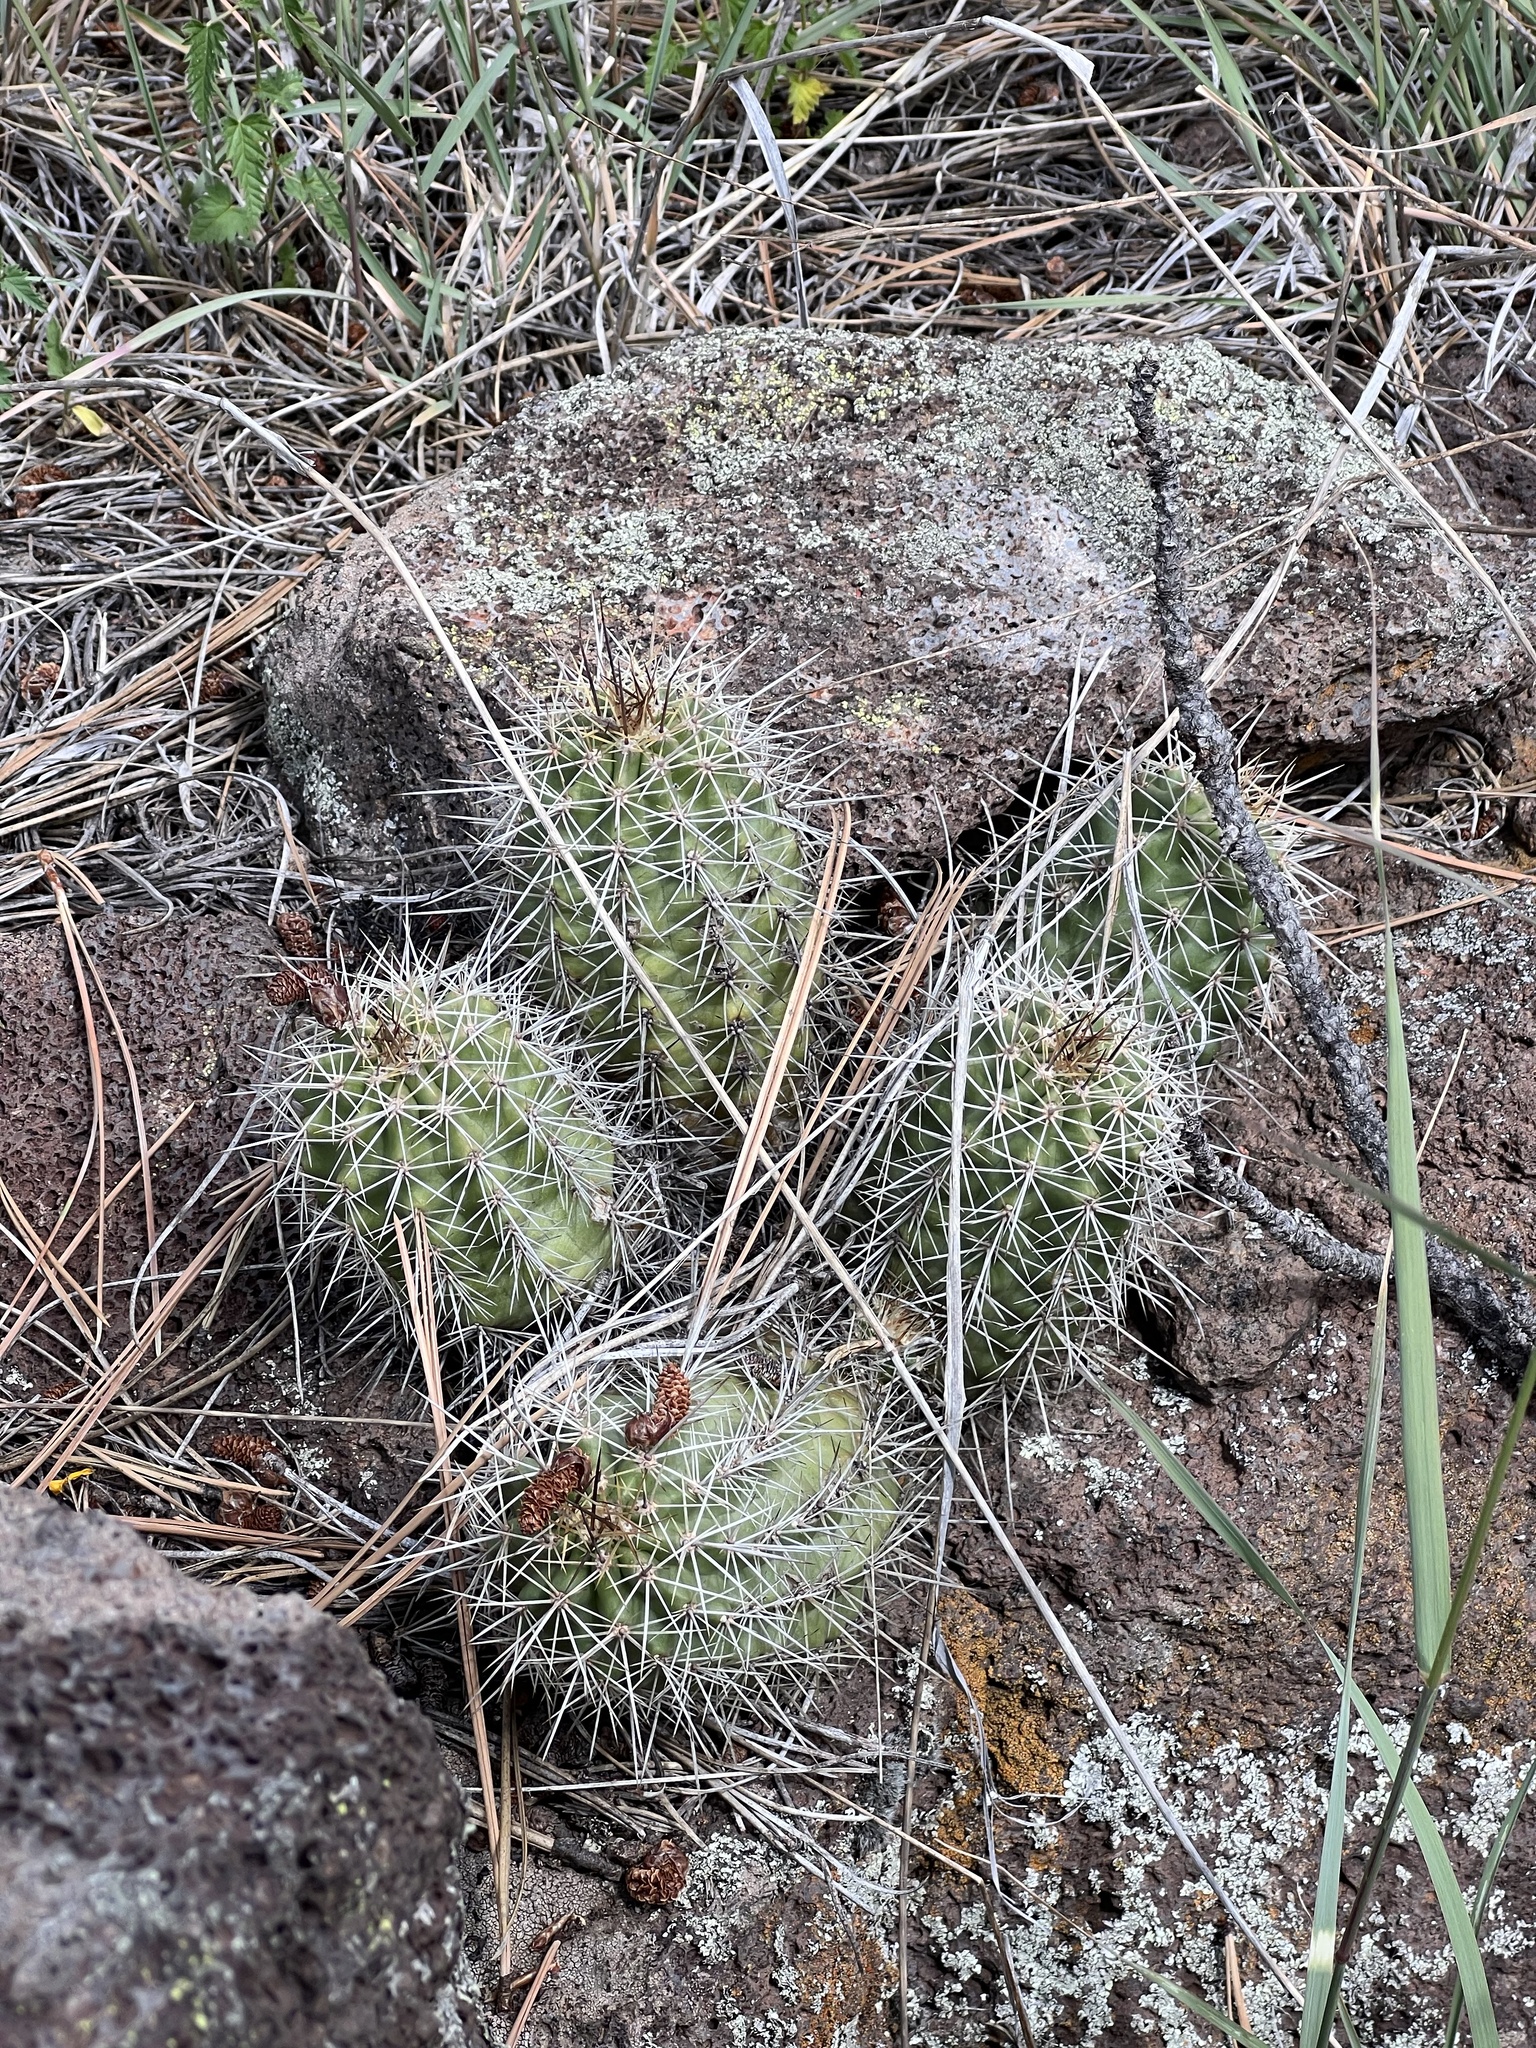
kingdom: Plantae
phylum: Tracheophyta
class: Magnoliopsida
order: Caryophyllales
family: Cactaceae
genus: Echinocereus
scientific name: Echinocereus bakeri
